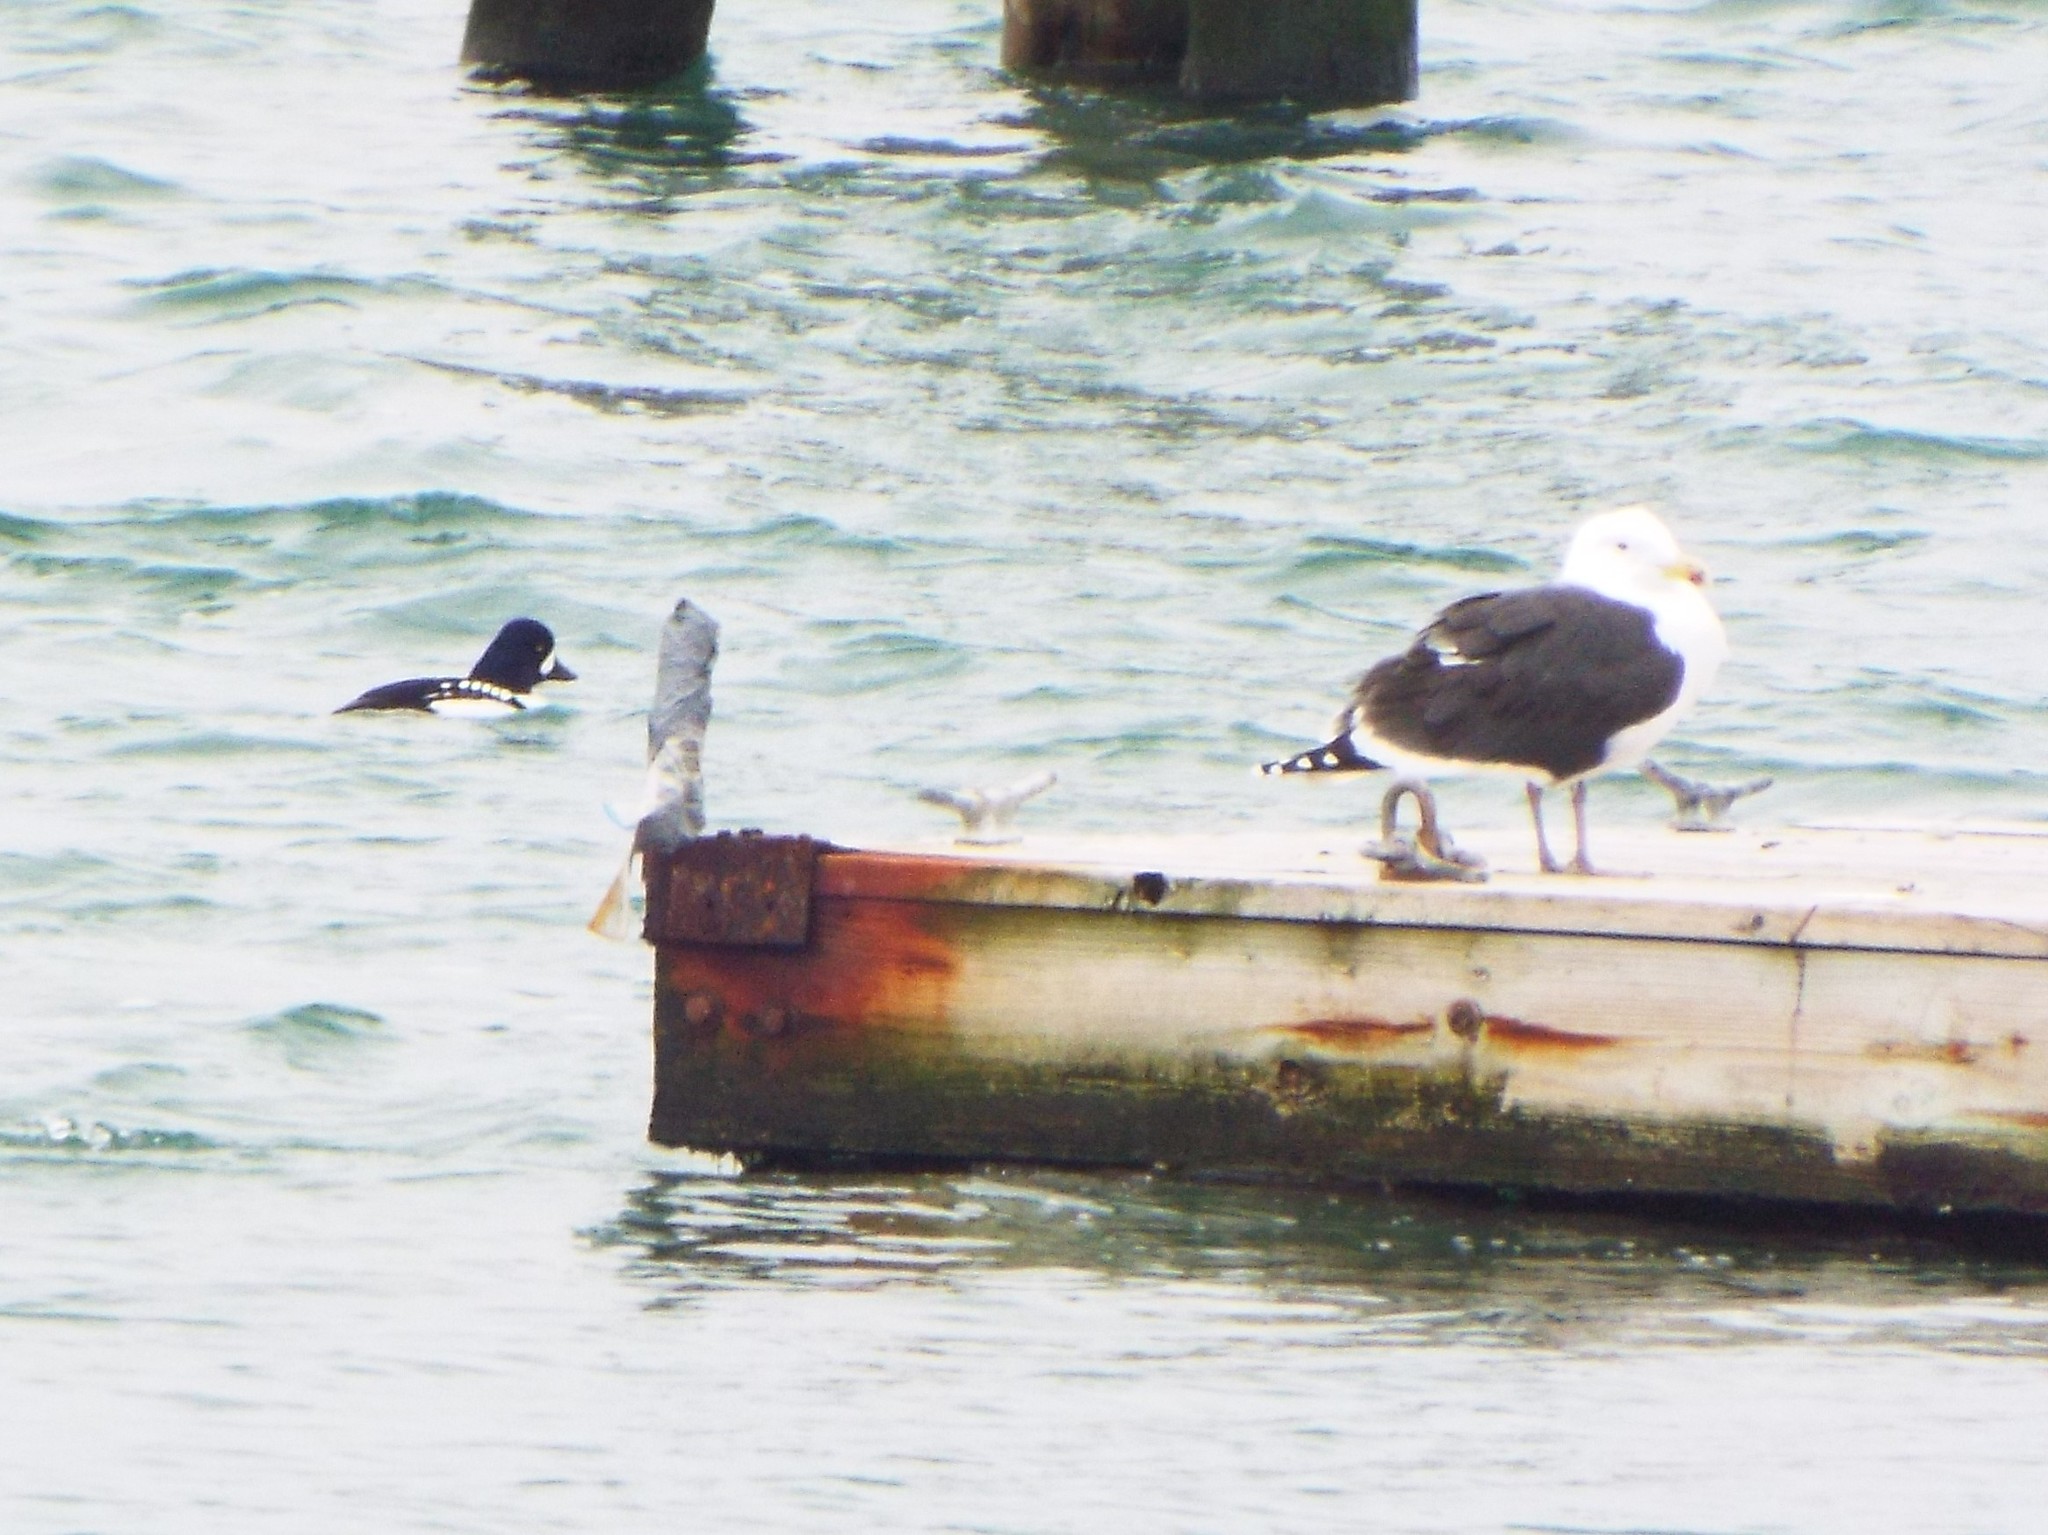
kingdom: Animalia
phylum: Chordata
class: Aves
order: Charadriiformes
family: Laridae
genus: Larus
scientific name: Larus marinus
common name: Great black-backed gull
